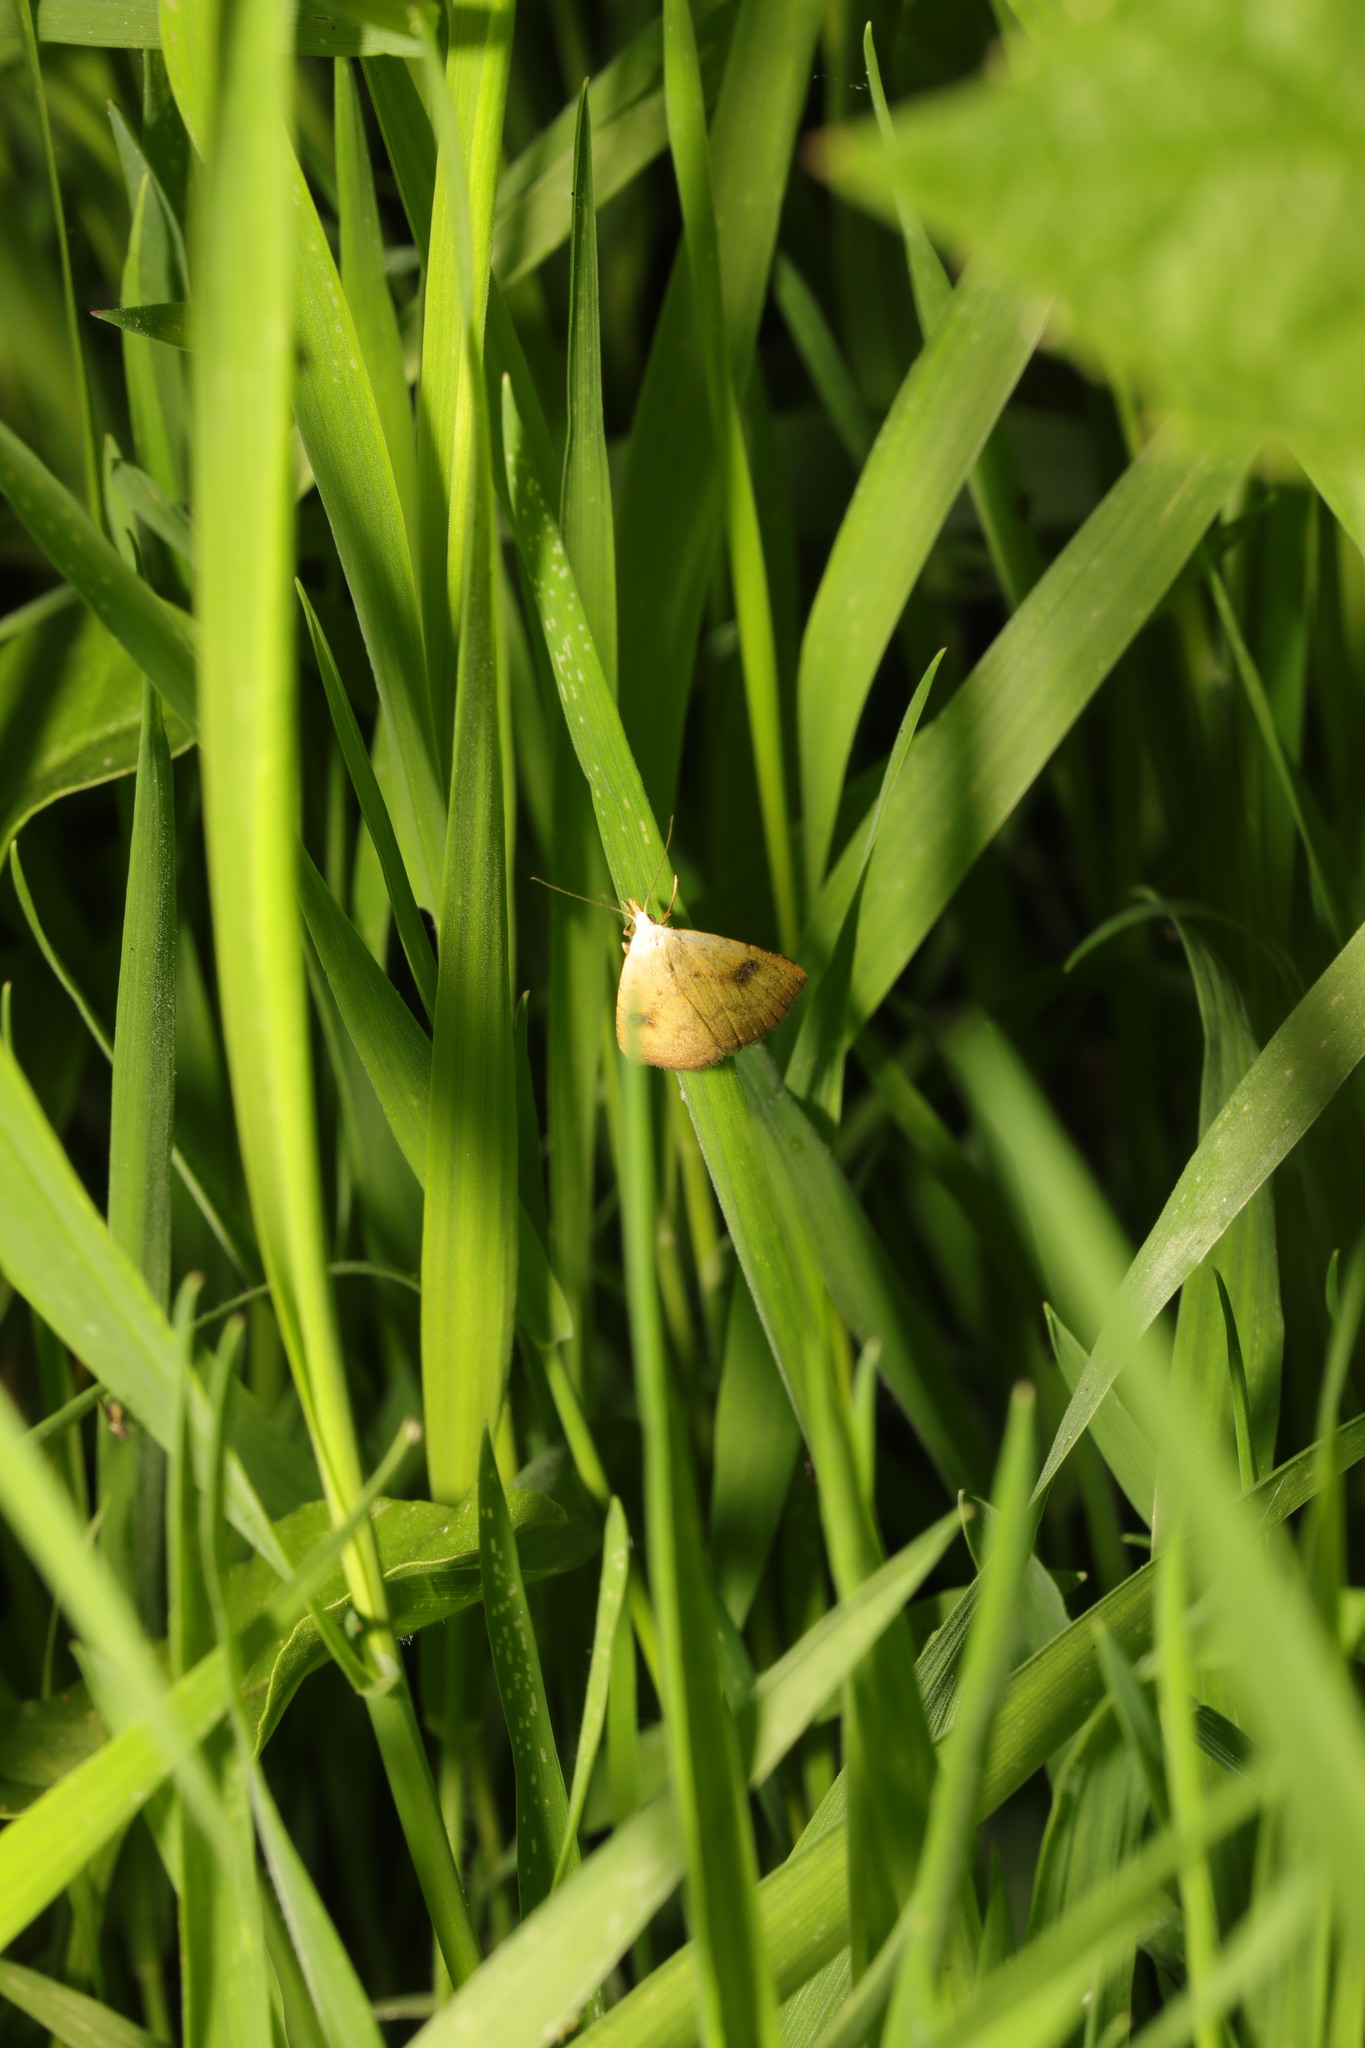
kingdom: Animalia
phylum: Arthropoda
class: Insecta
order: Lepidoptera
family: Erebidae
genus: Rivula
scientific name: Rivula sericealis
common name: Straw dot
